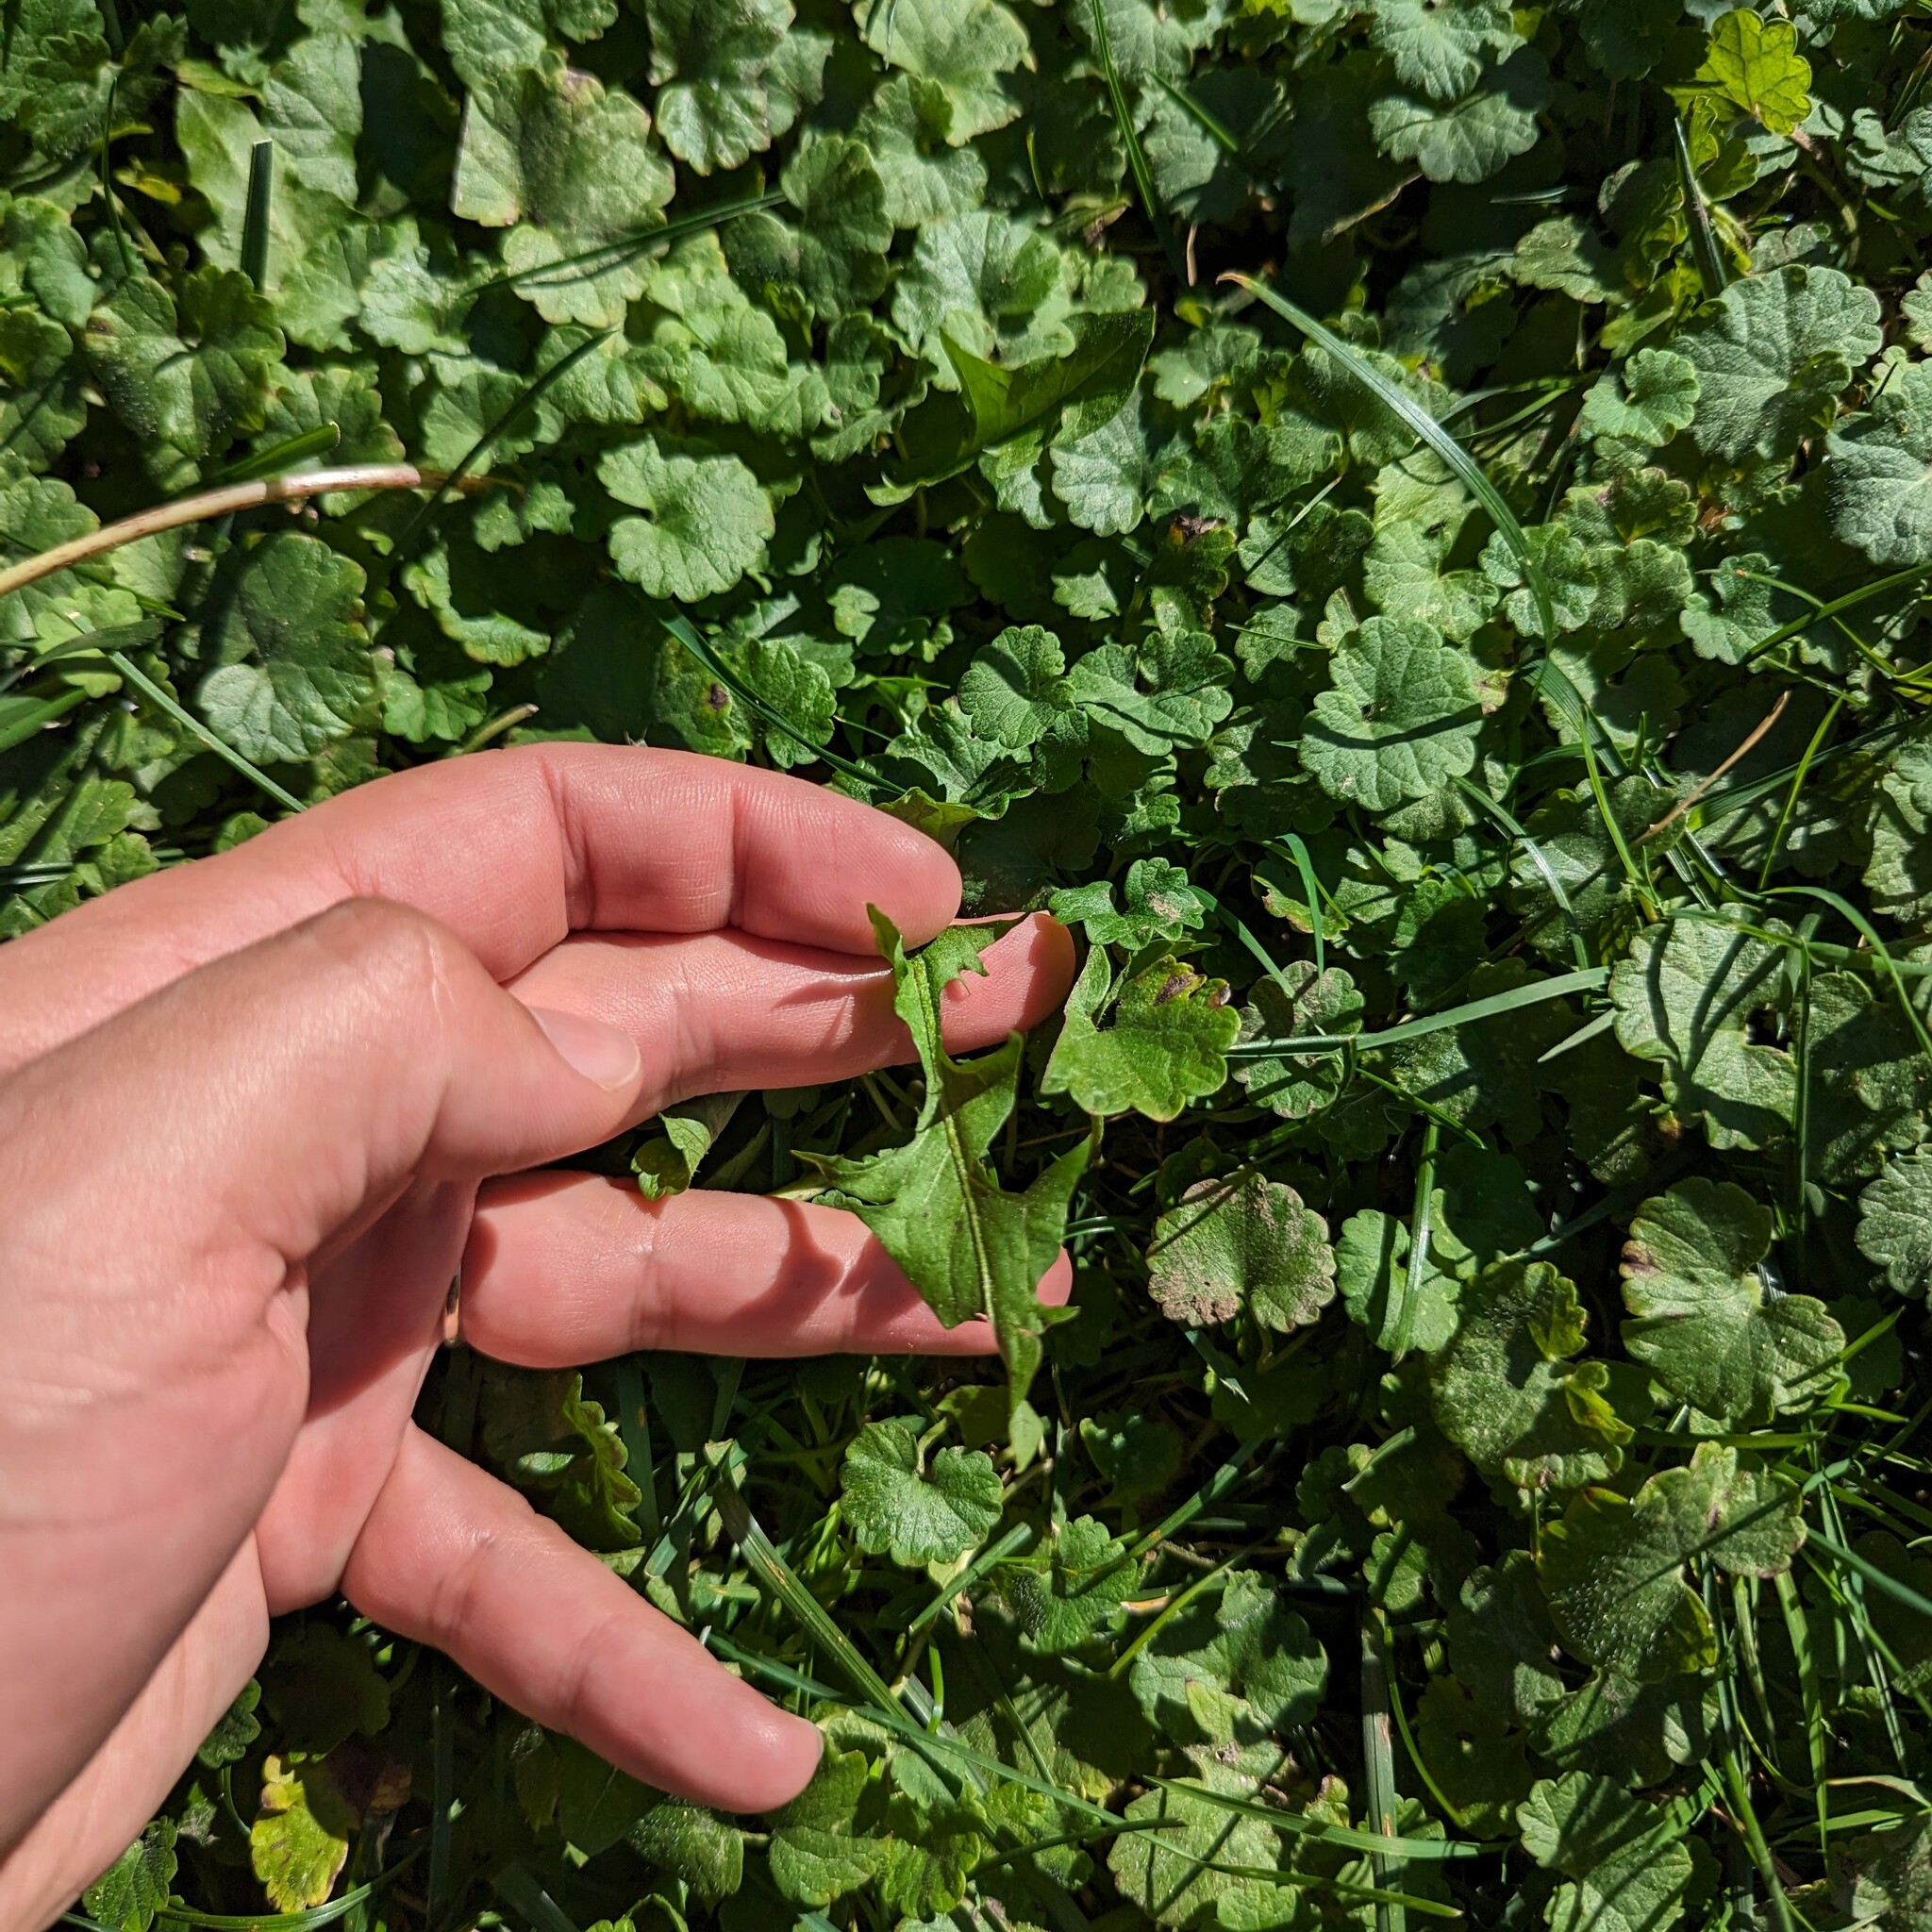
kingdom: Plantae
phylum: Tracheophyta
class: Magnoliopsida
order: Asterales
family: Asteraceae
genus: Taraxacum
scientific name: Taraxacum officinale
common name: Common dandelion
